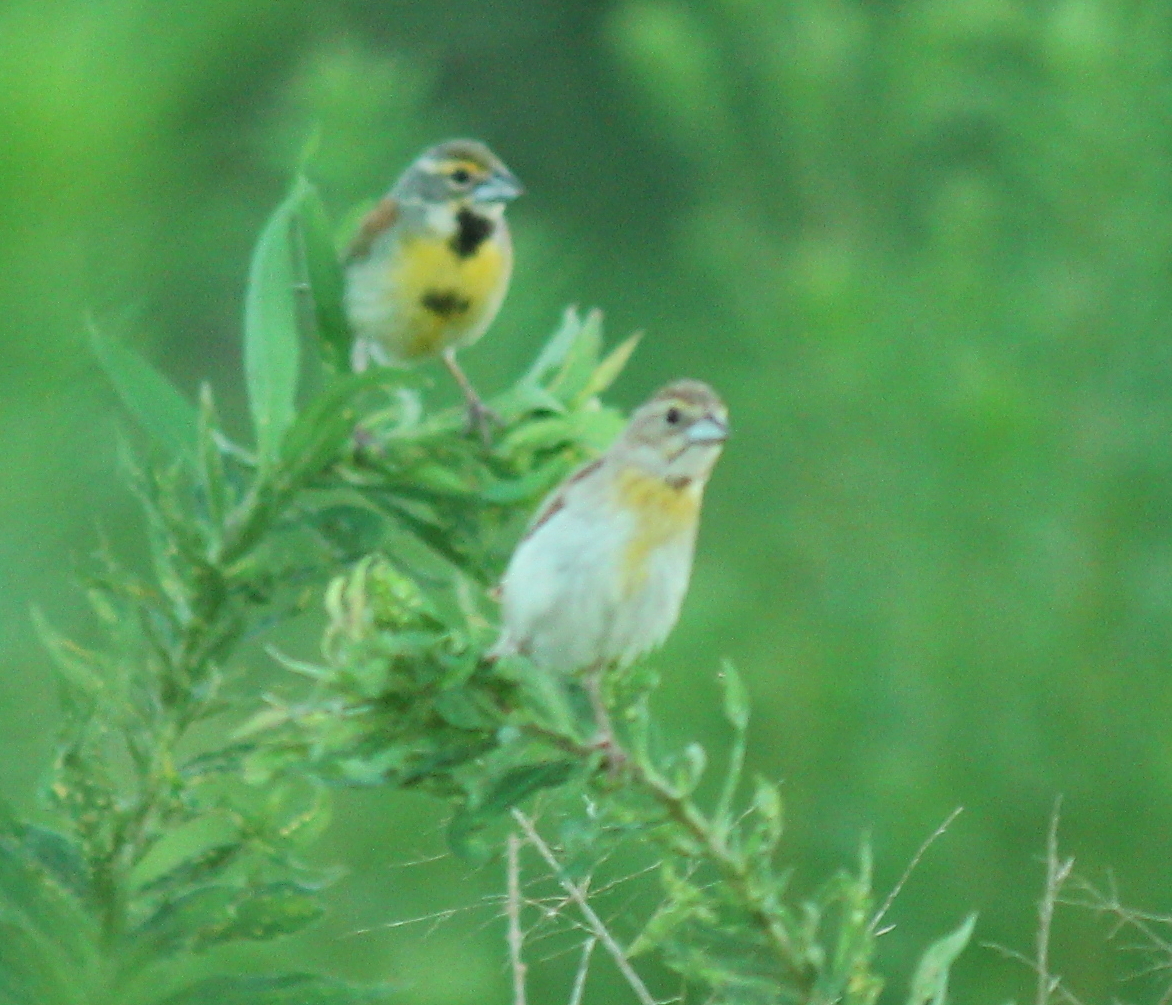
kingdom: Animalia
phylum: Chordata
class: Aves
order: Passeriformes
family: Cardinalidae
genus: Spiza
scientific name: Spiza americana
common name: Dickcissel
